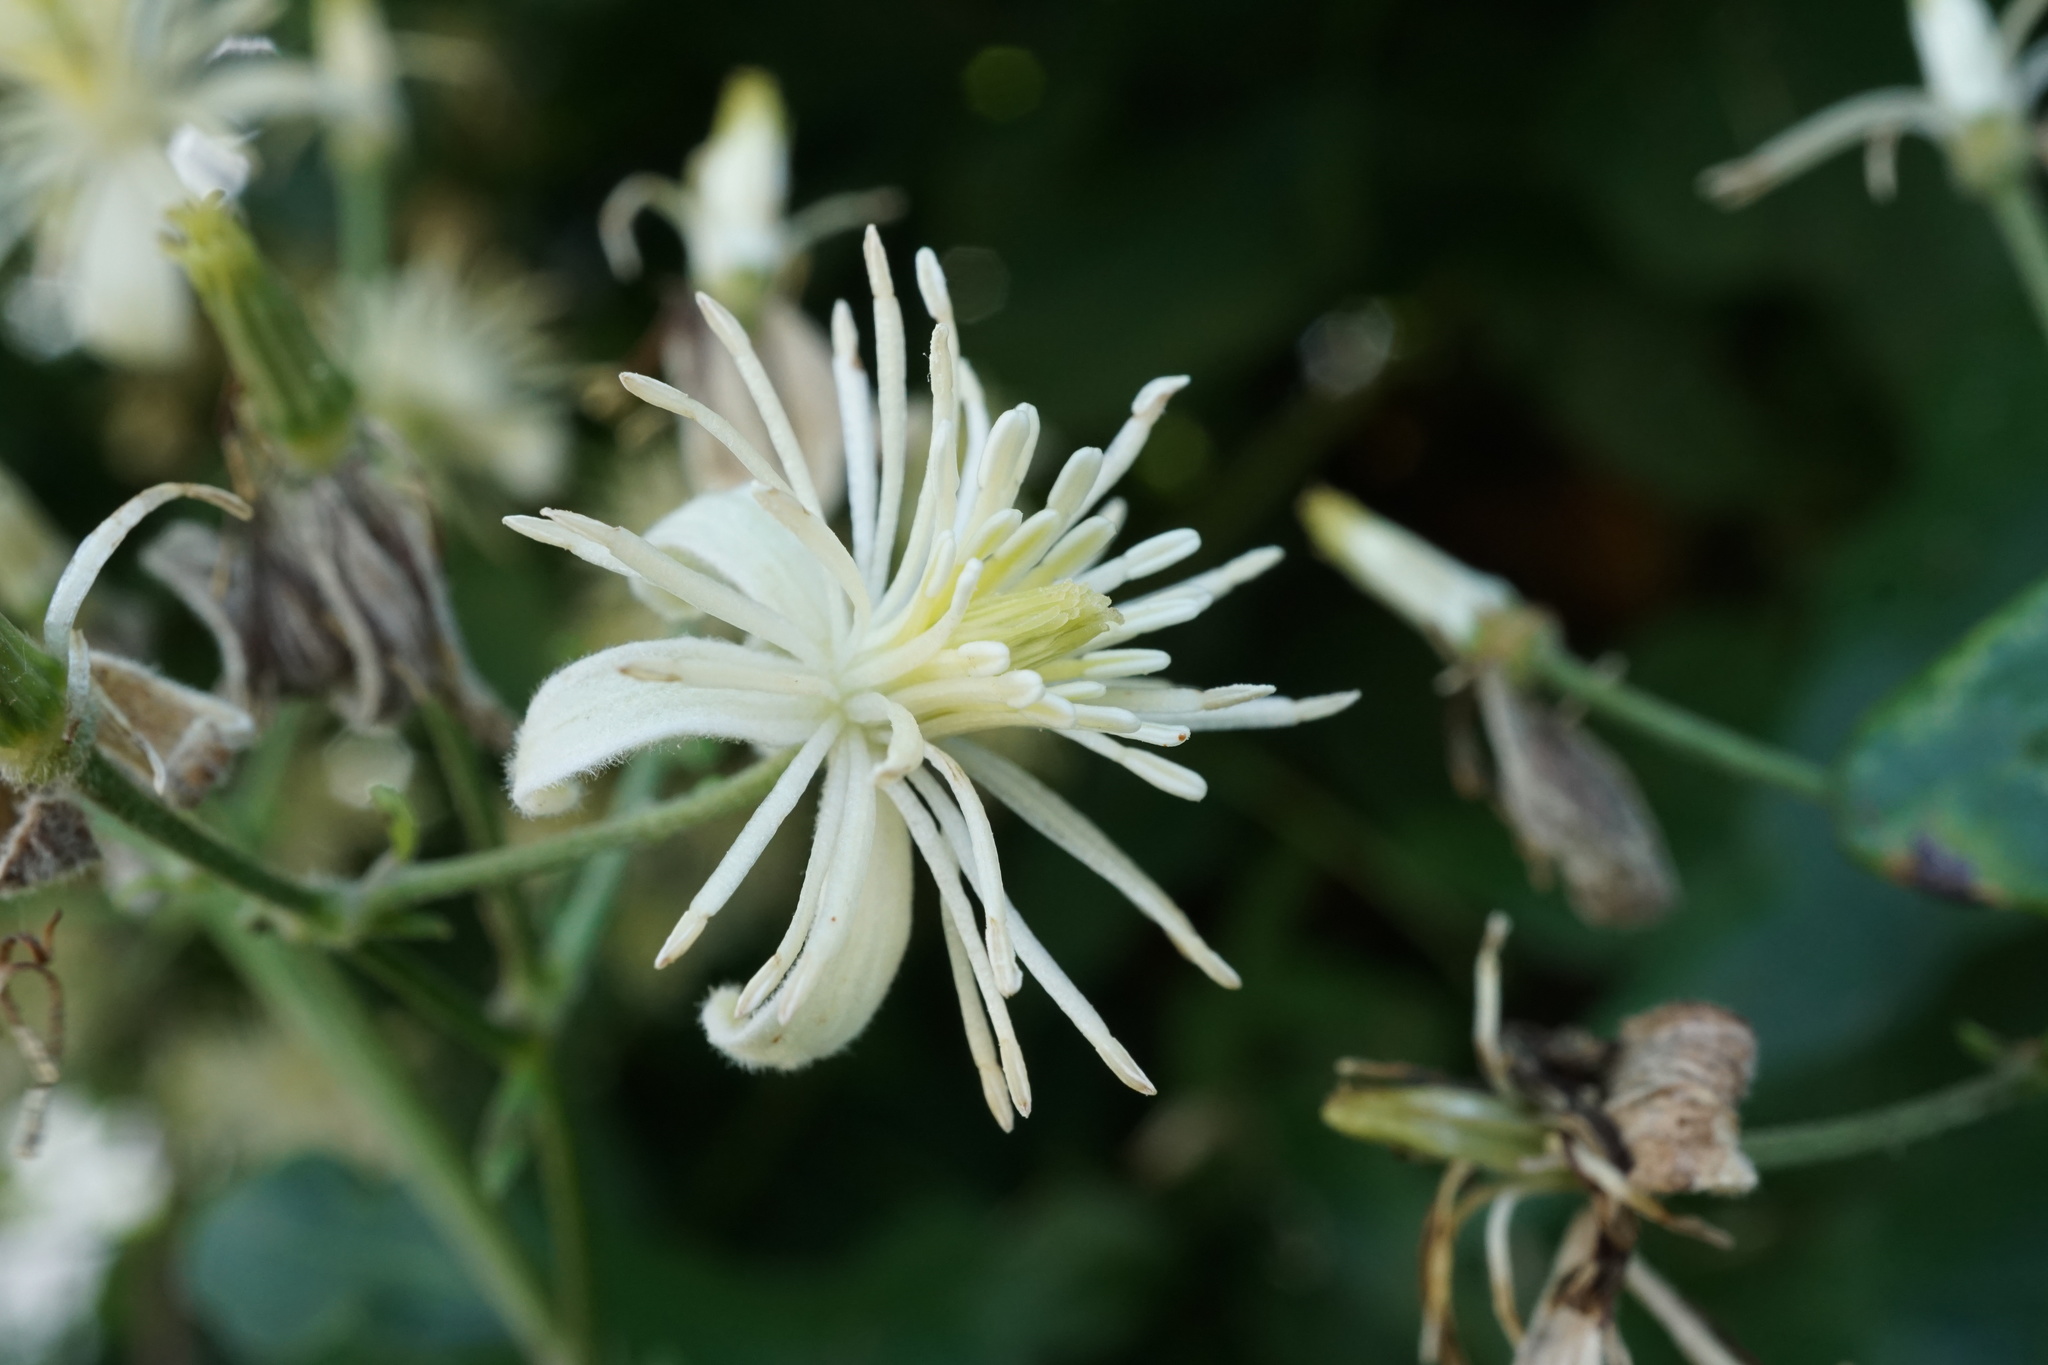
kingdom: Plantae
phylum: Tracheophyta
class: Magnoliopsida
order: Ranunculales
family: Ranunculaceae
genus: Clematis
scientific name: Clematis vitalba
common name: Evergreen clematis
